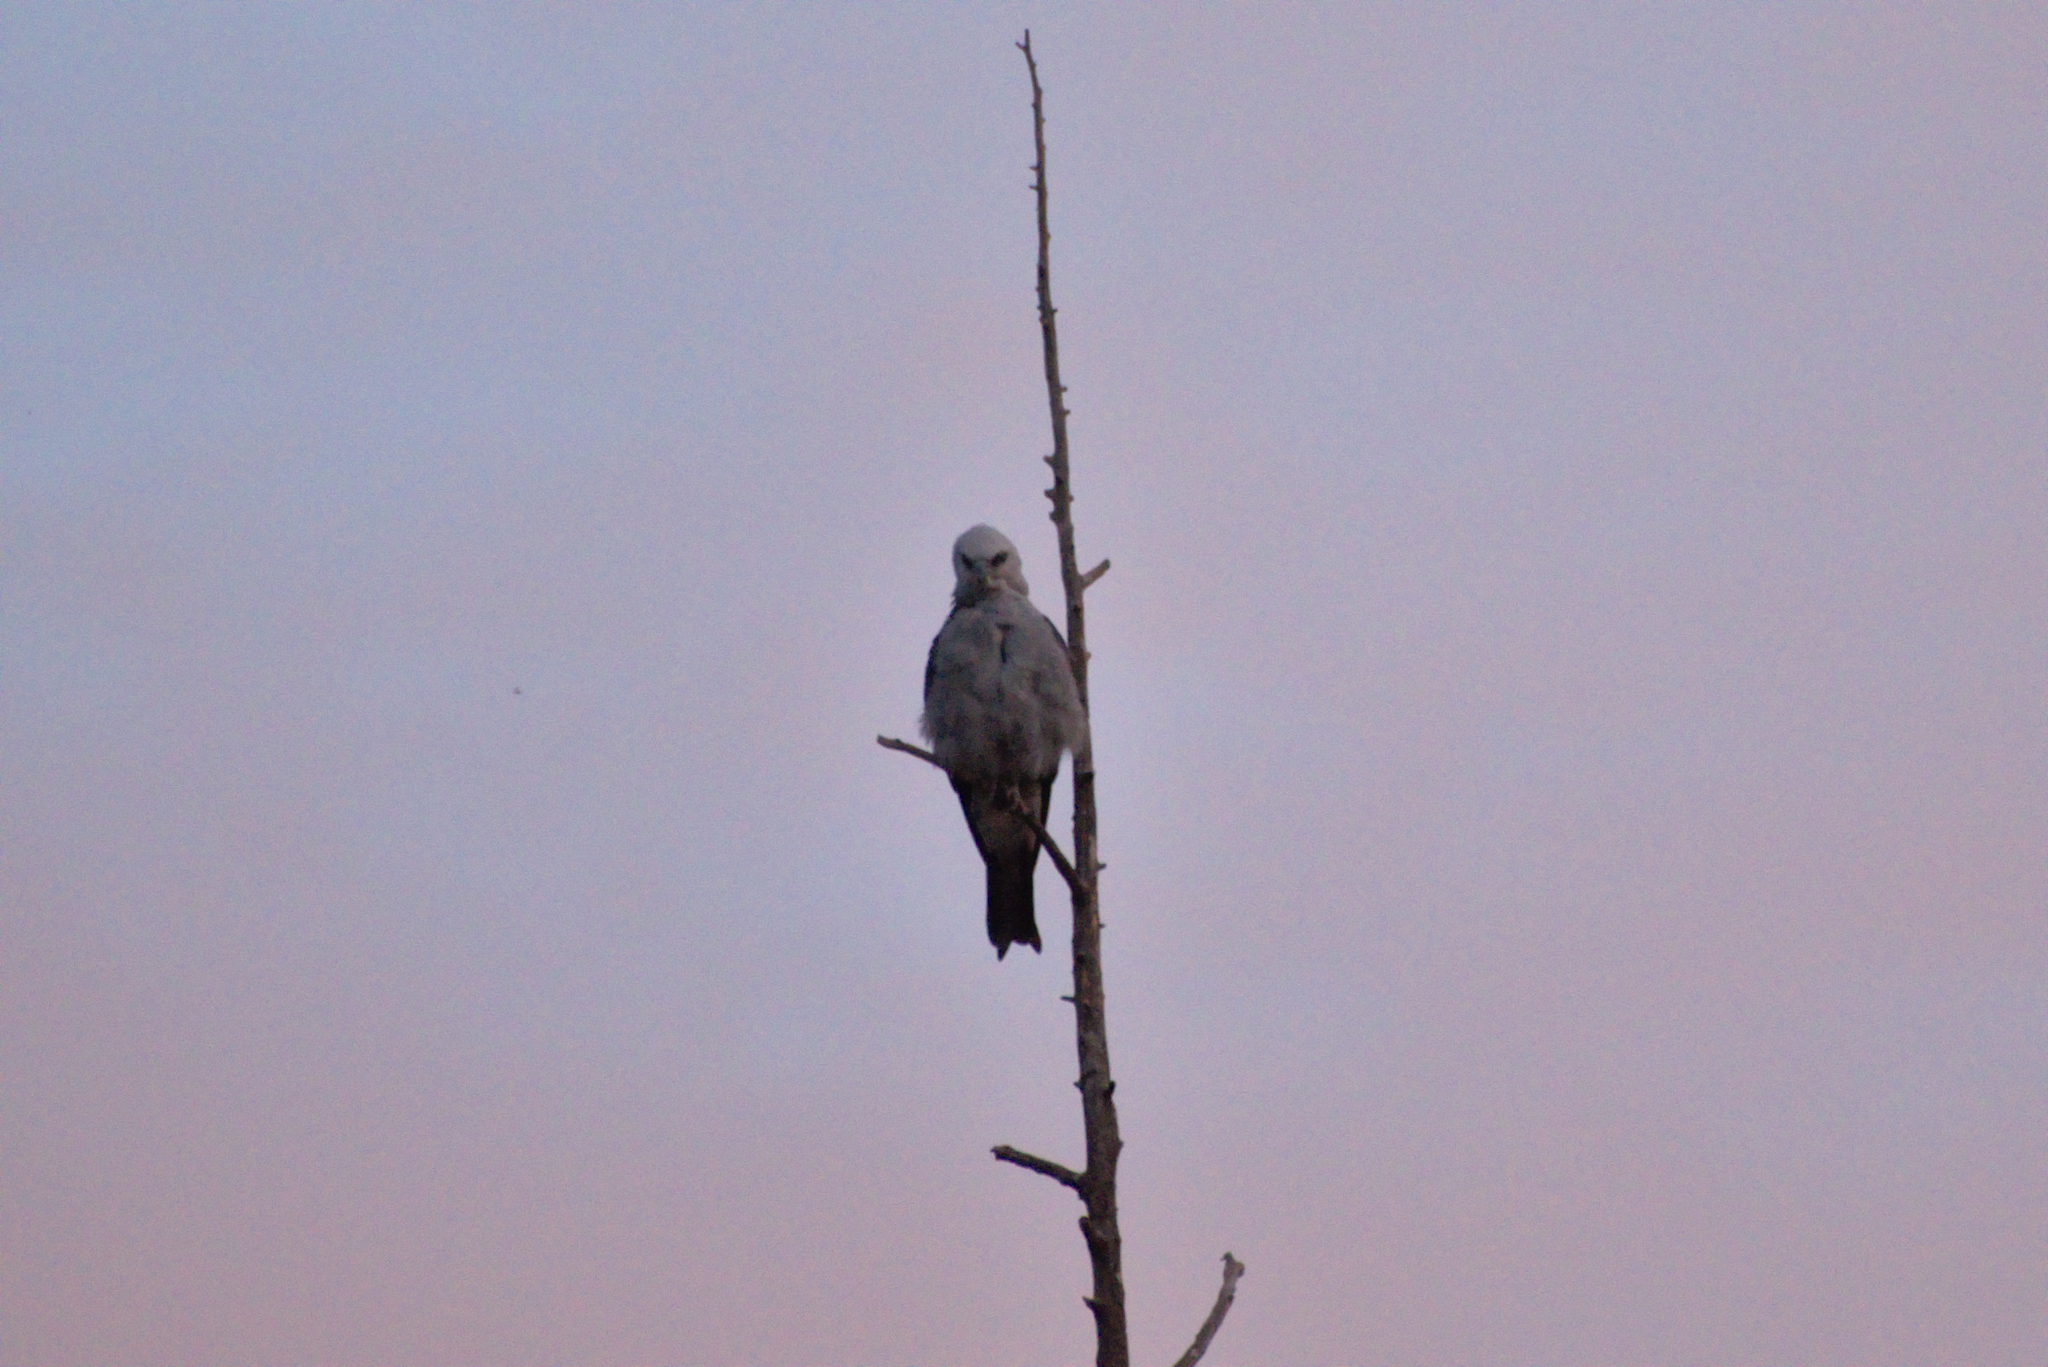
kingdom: Animalia
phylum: Chordata
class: Aves
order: Accipitriformes
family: Accipitridae
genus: Ictinia
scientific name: Ictinia mississippiensis
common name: Mississippi kite
